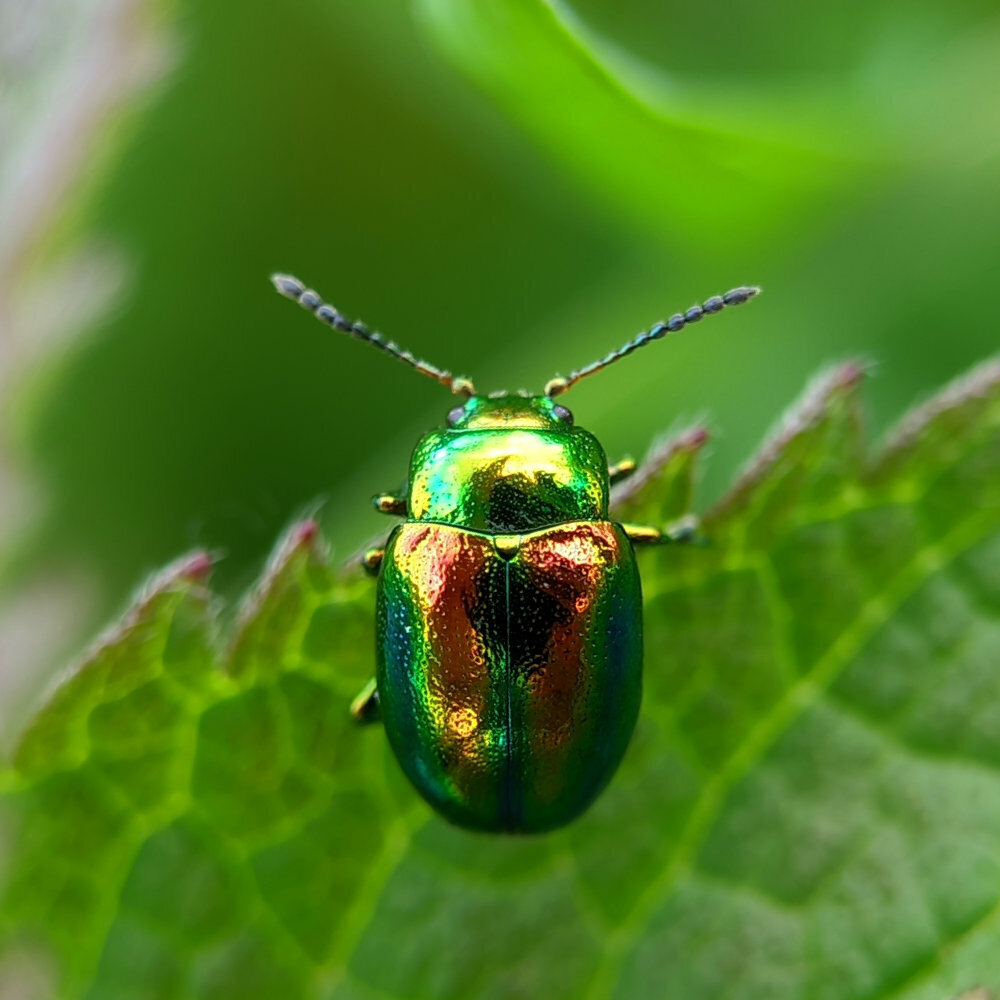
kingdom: Animalia
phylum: Arthropoda
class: Insecta
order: Coleoptera
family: Chrysomelidae
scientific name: Chrysomelidae
